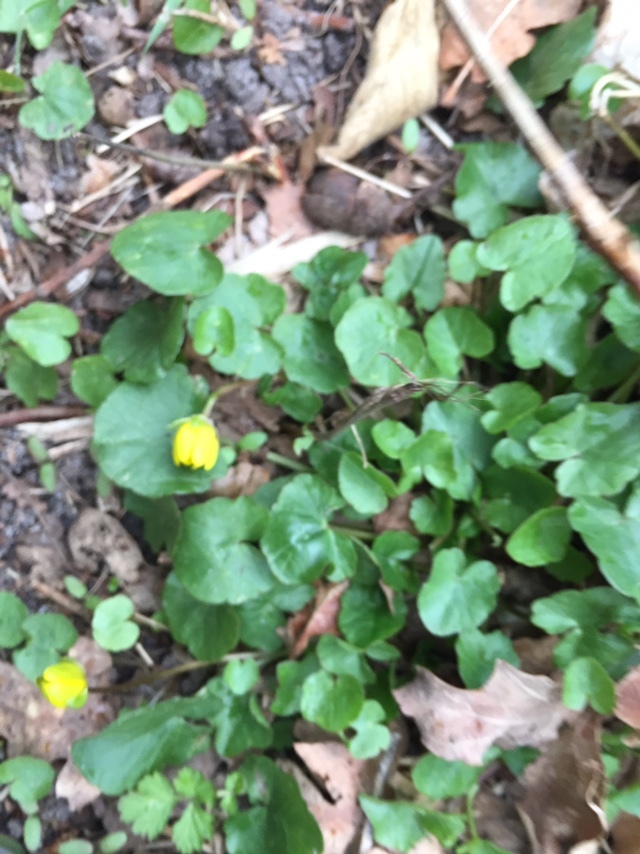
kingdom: Plantae
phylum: Tracheophyta
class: Magnoliopsida
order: Ranunculales
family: Ranunculaceae
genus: Ficaria
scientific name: Ficaria verna
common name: Lesser celandine
